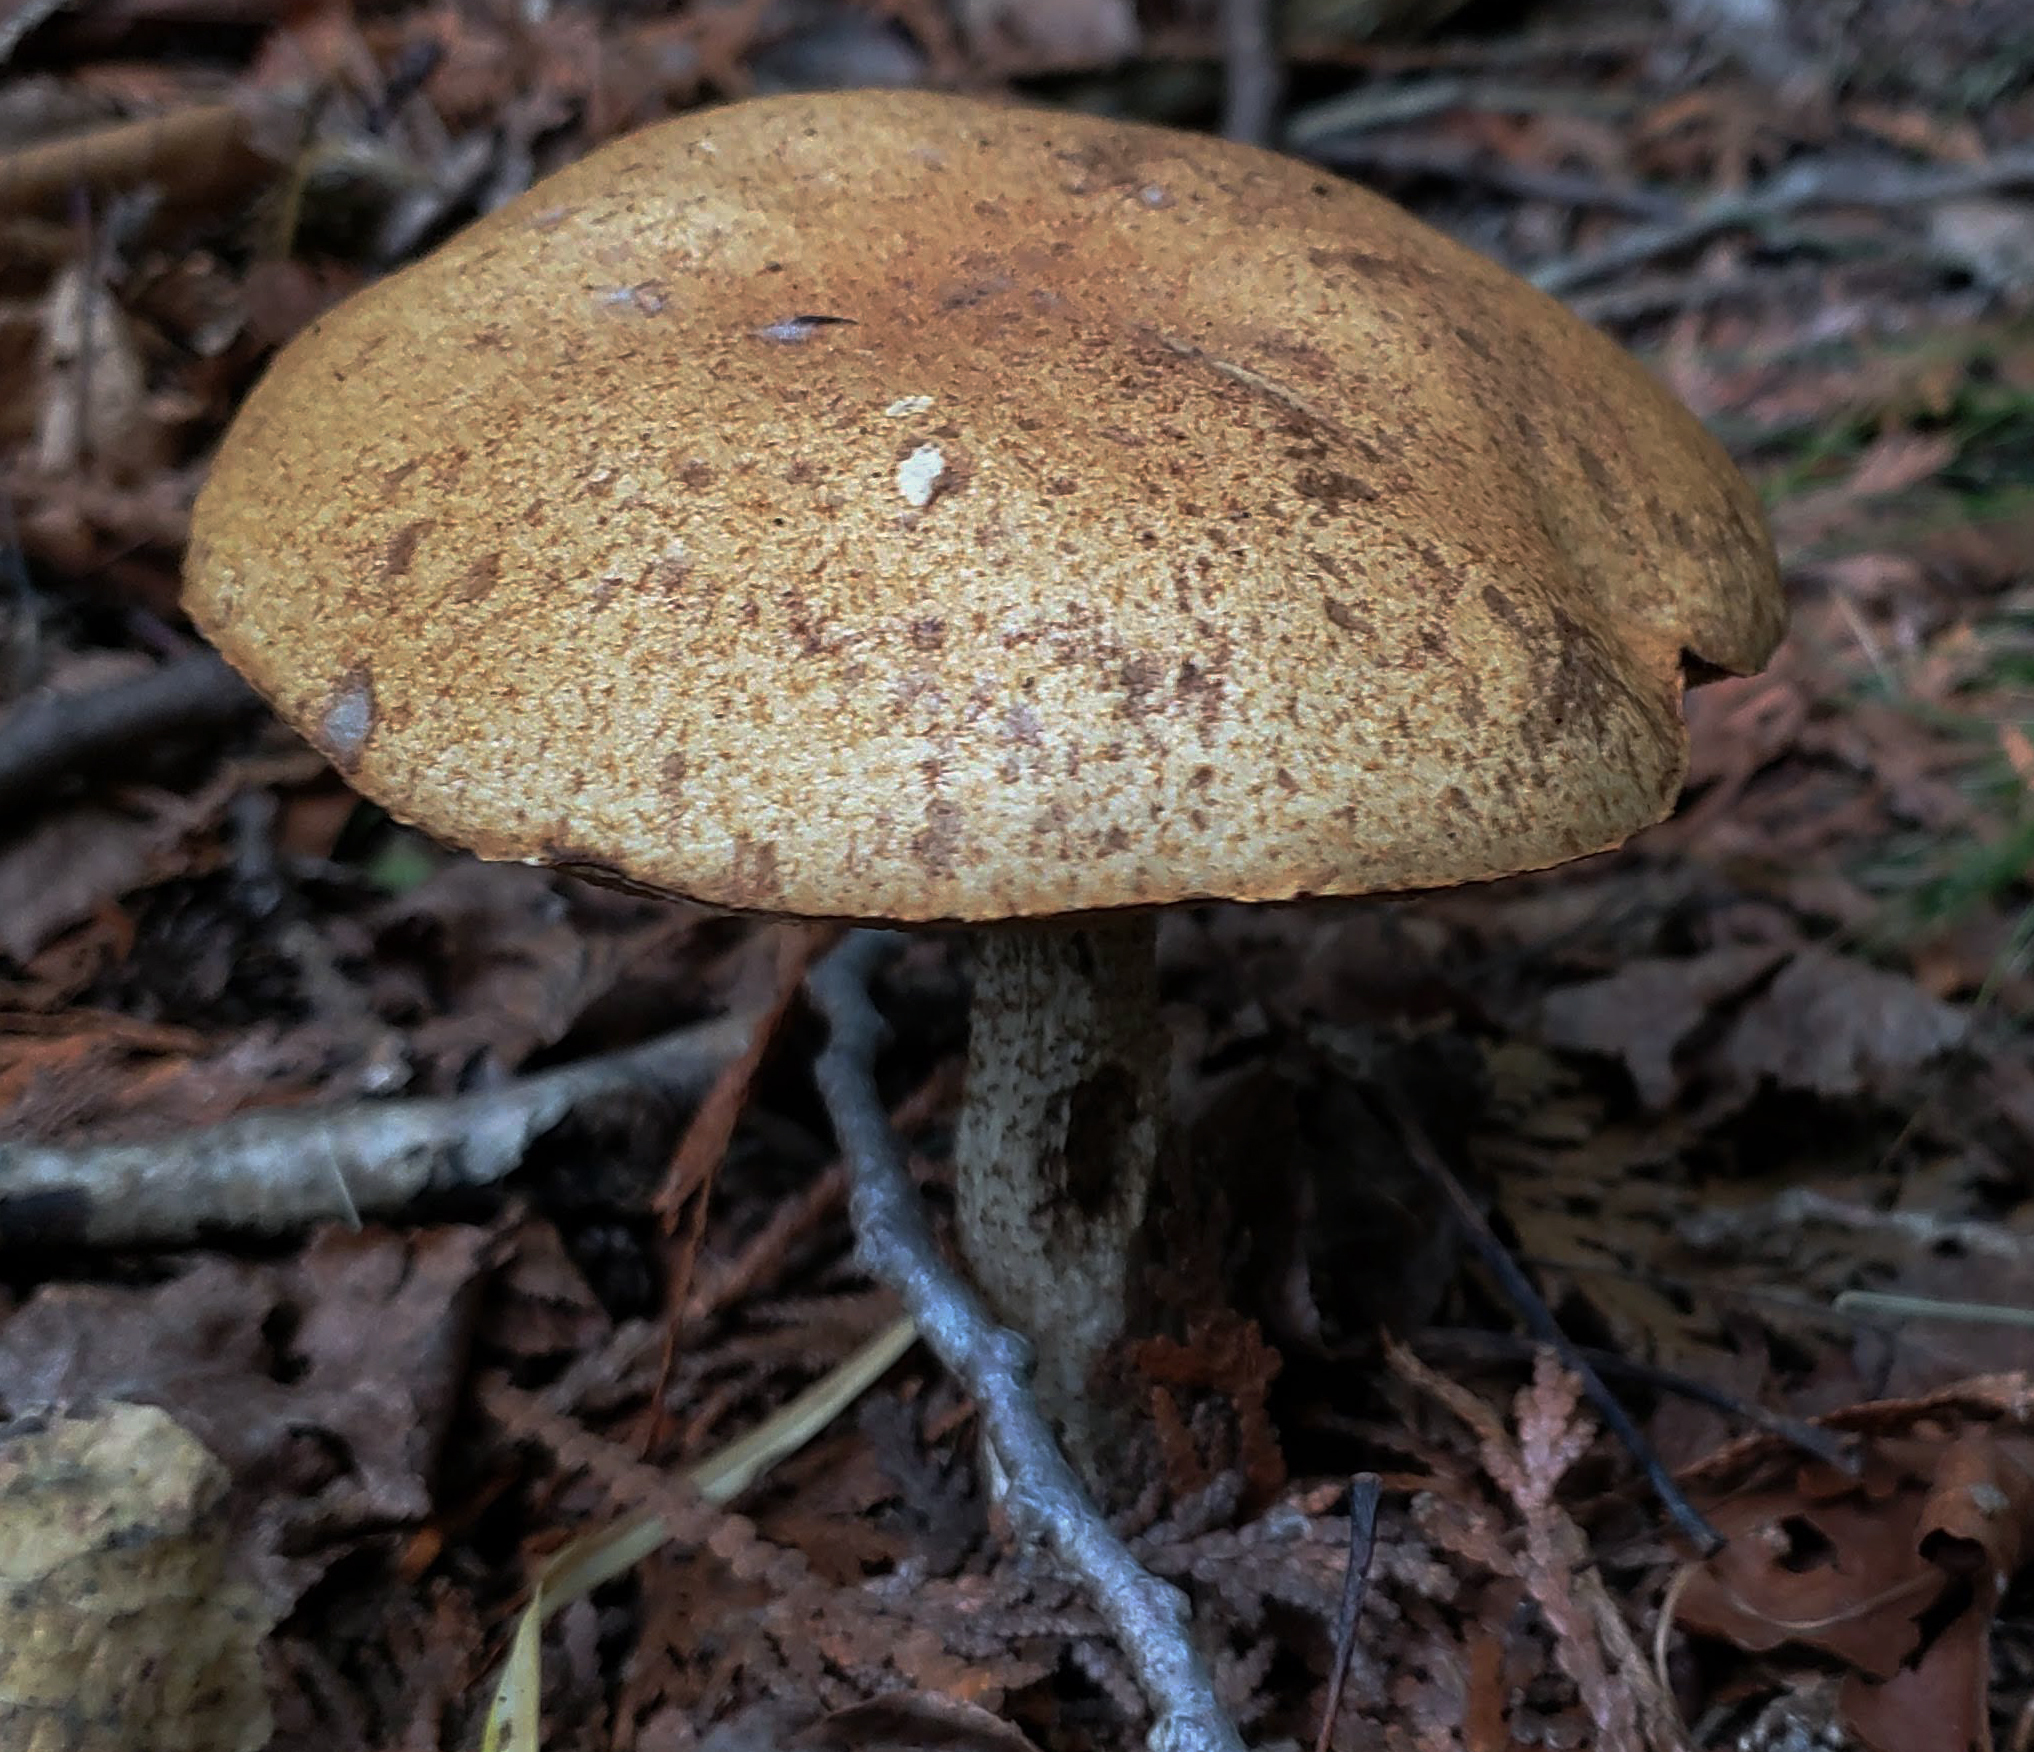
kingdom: Fungi
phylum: Basidiomycota
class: Agaricomycetes
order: Boletales
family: Boletaceae
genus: Leccinum
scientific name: Leccinum scabrum
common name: Blushing bolete
